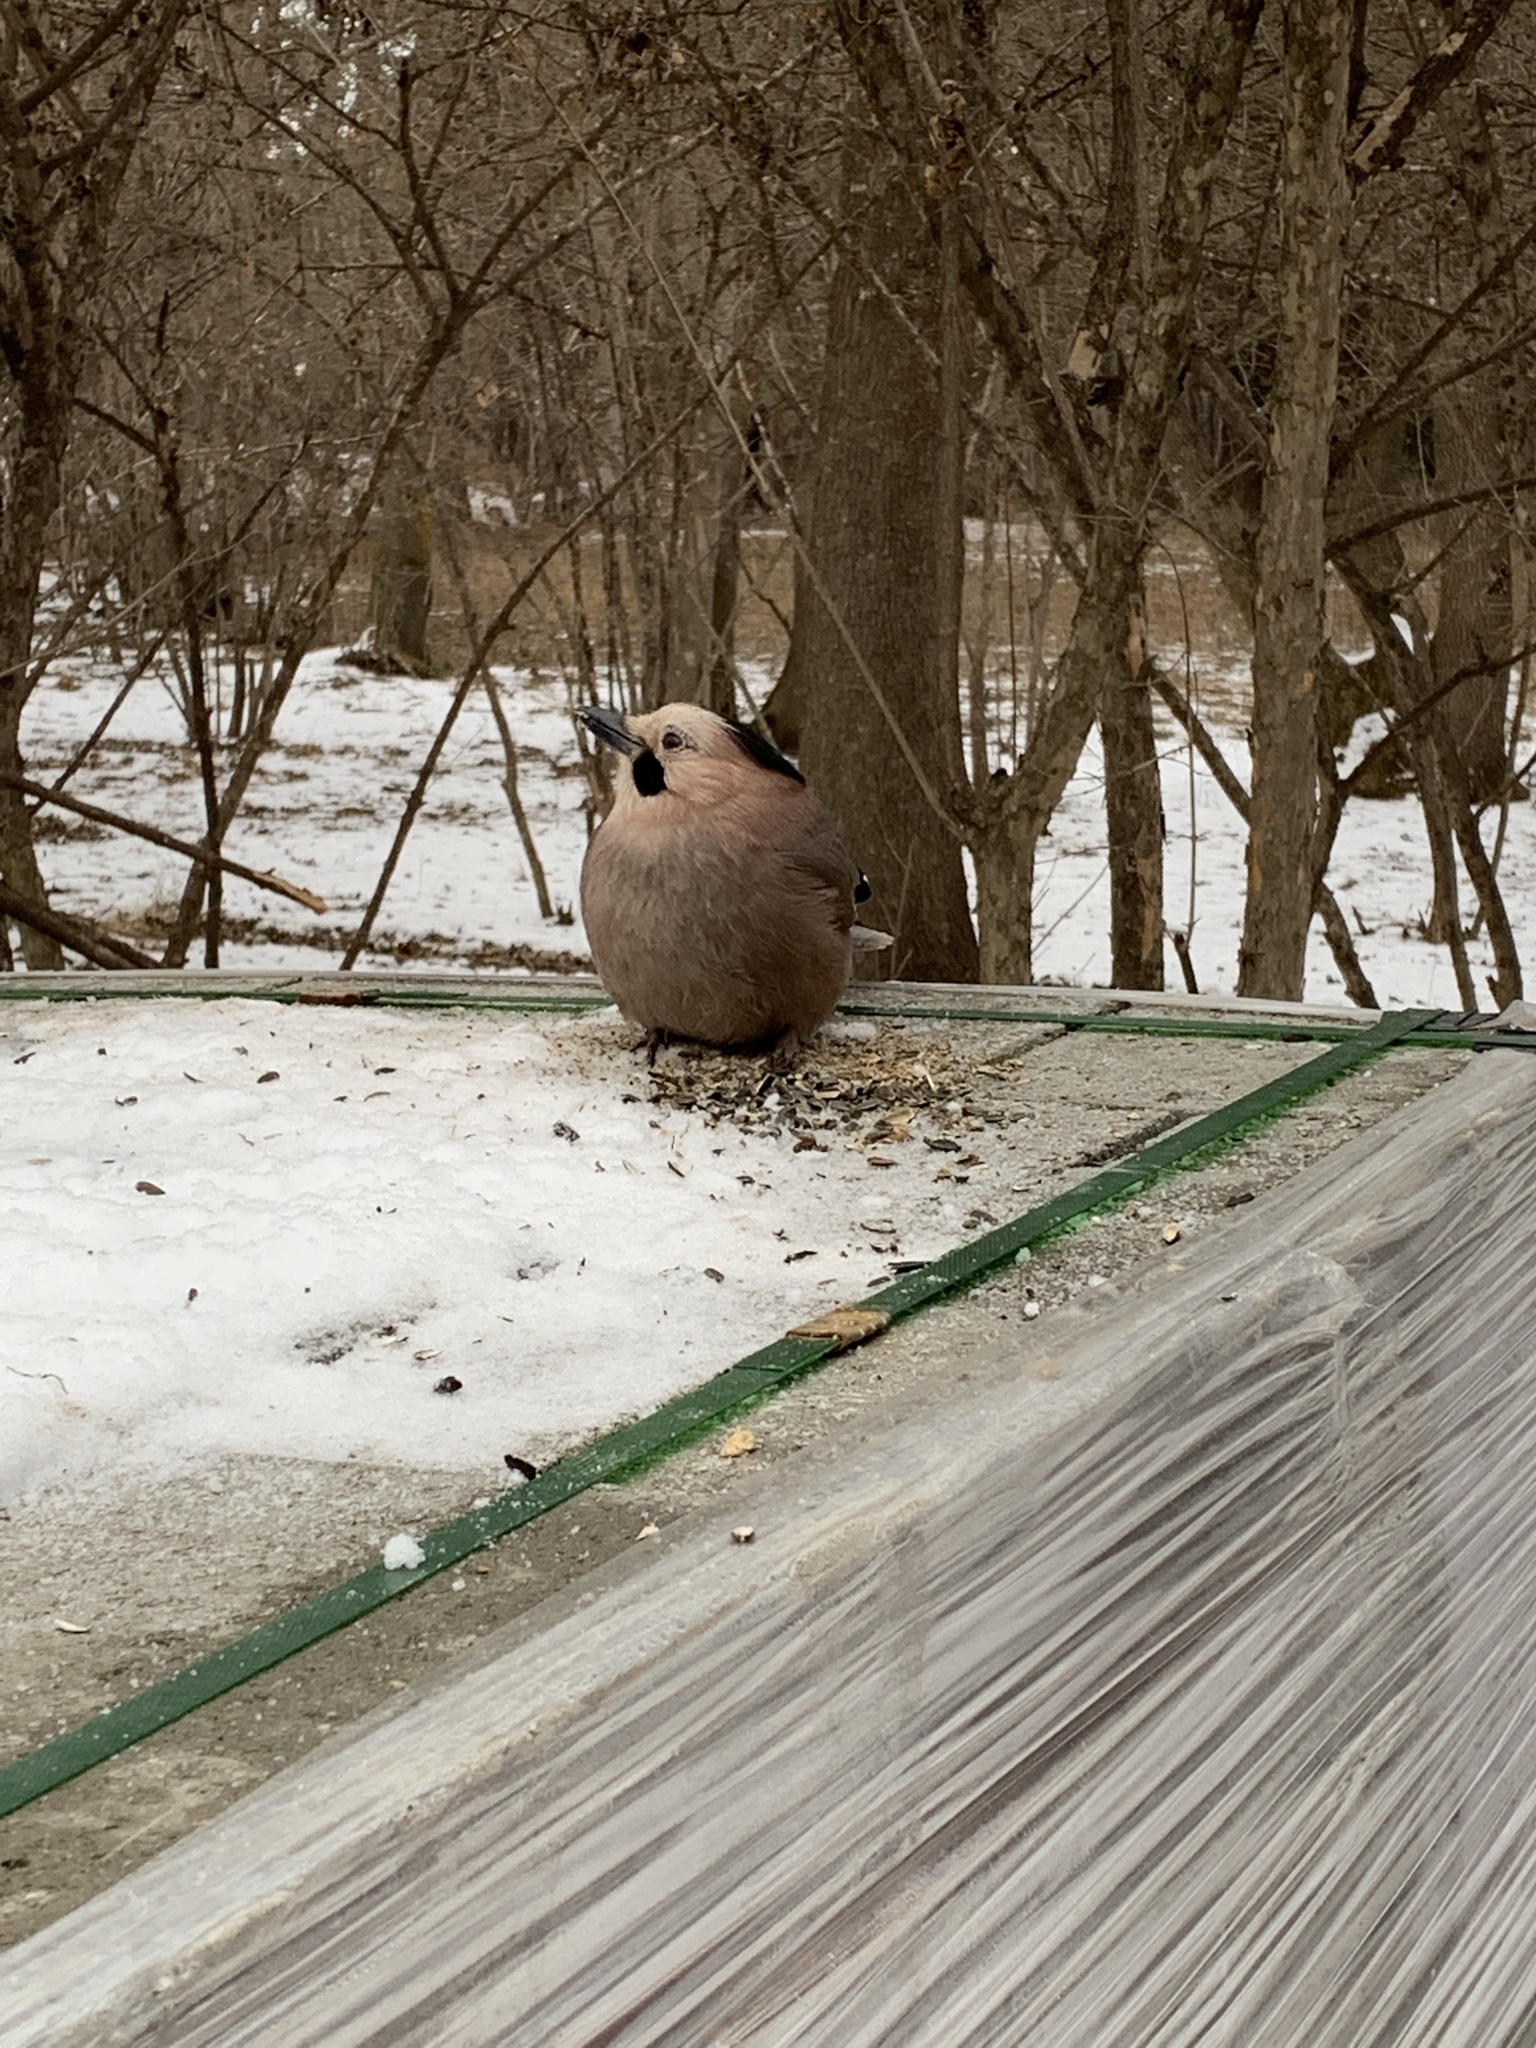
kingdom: Animalia
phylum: Chordata
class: Aves
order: Passeriformes
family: Corvidae
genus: Garrulus
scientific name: Garrulus glandarius
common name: Eurasian jay
